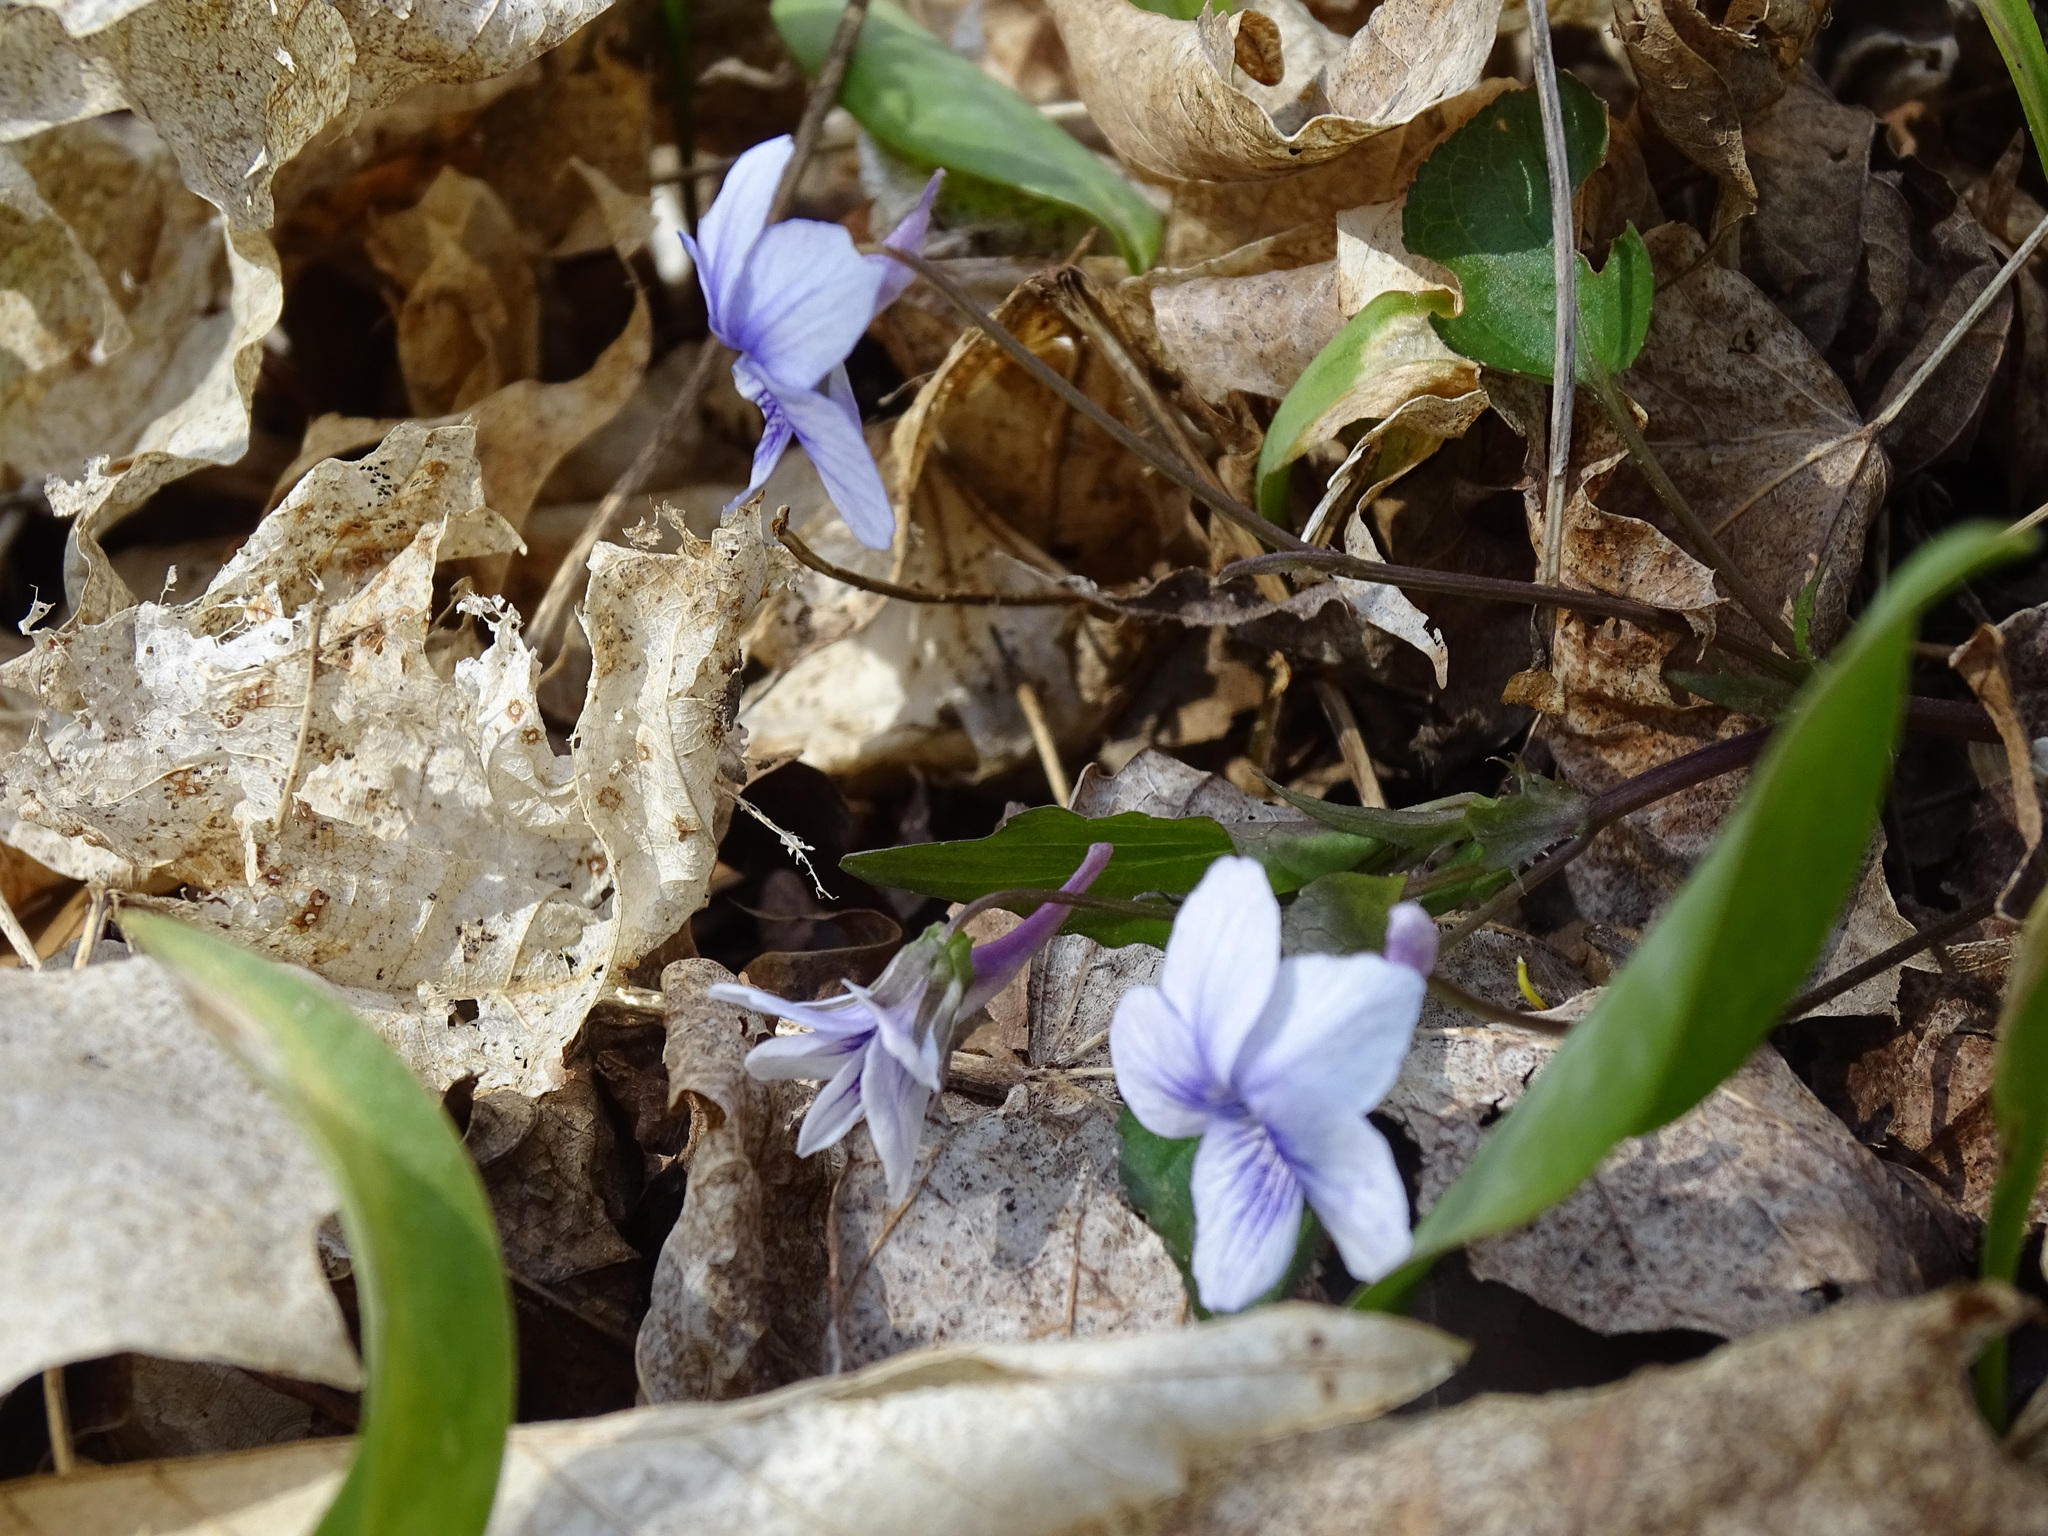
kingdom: Plantae
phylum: Tracheophyta
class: Magnoliopsida
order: Malpighiales
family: Violaceae
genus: Viola
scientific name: Viola rostrata
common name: Long-spur violet
